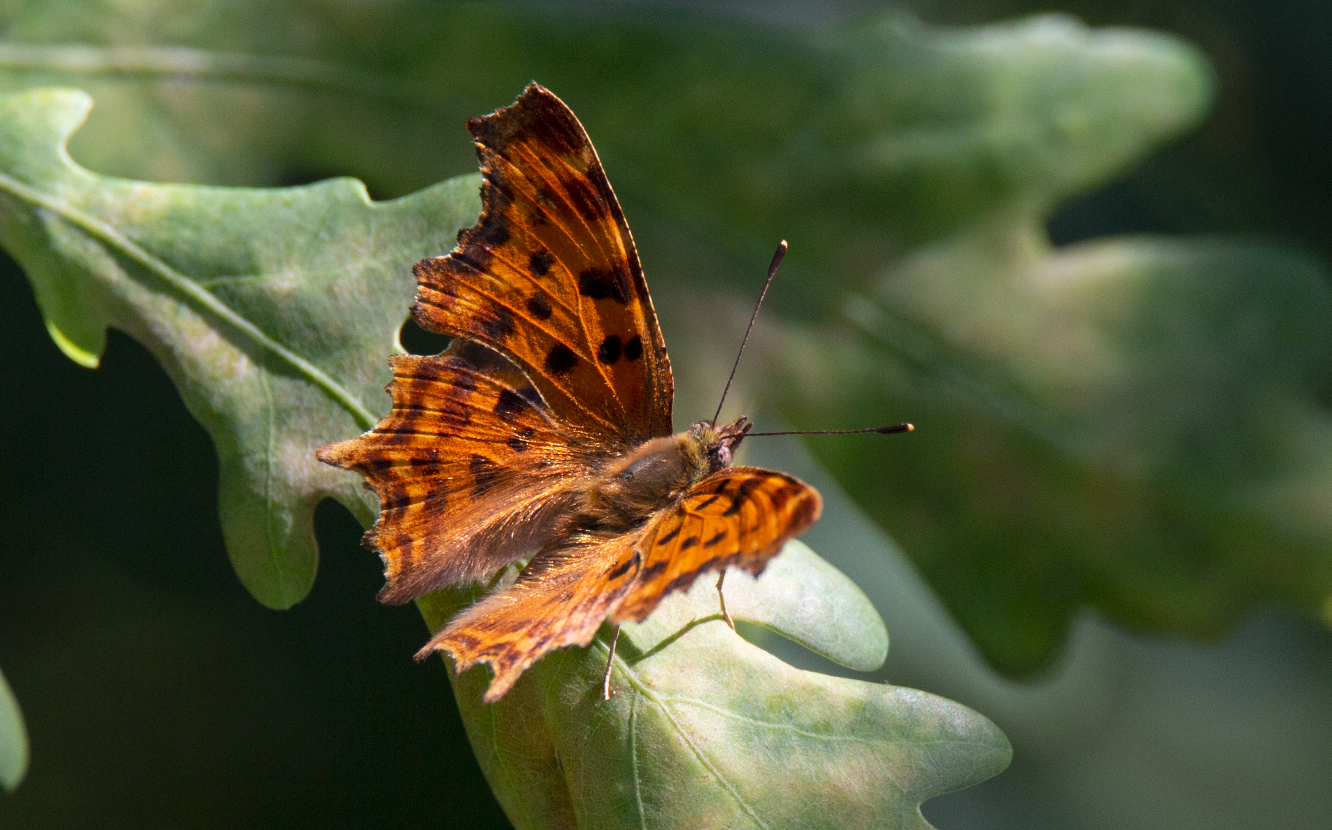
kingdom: Animalia
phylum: Arthropoda
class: Insecta
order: Lepidoptera
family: Nymphalidae
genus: Polygonia
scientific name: Polygonia c-album
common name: Comma
